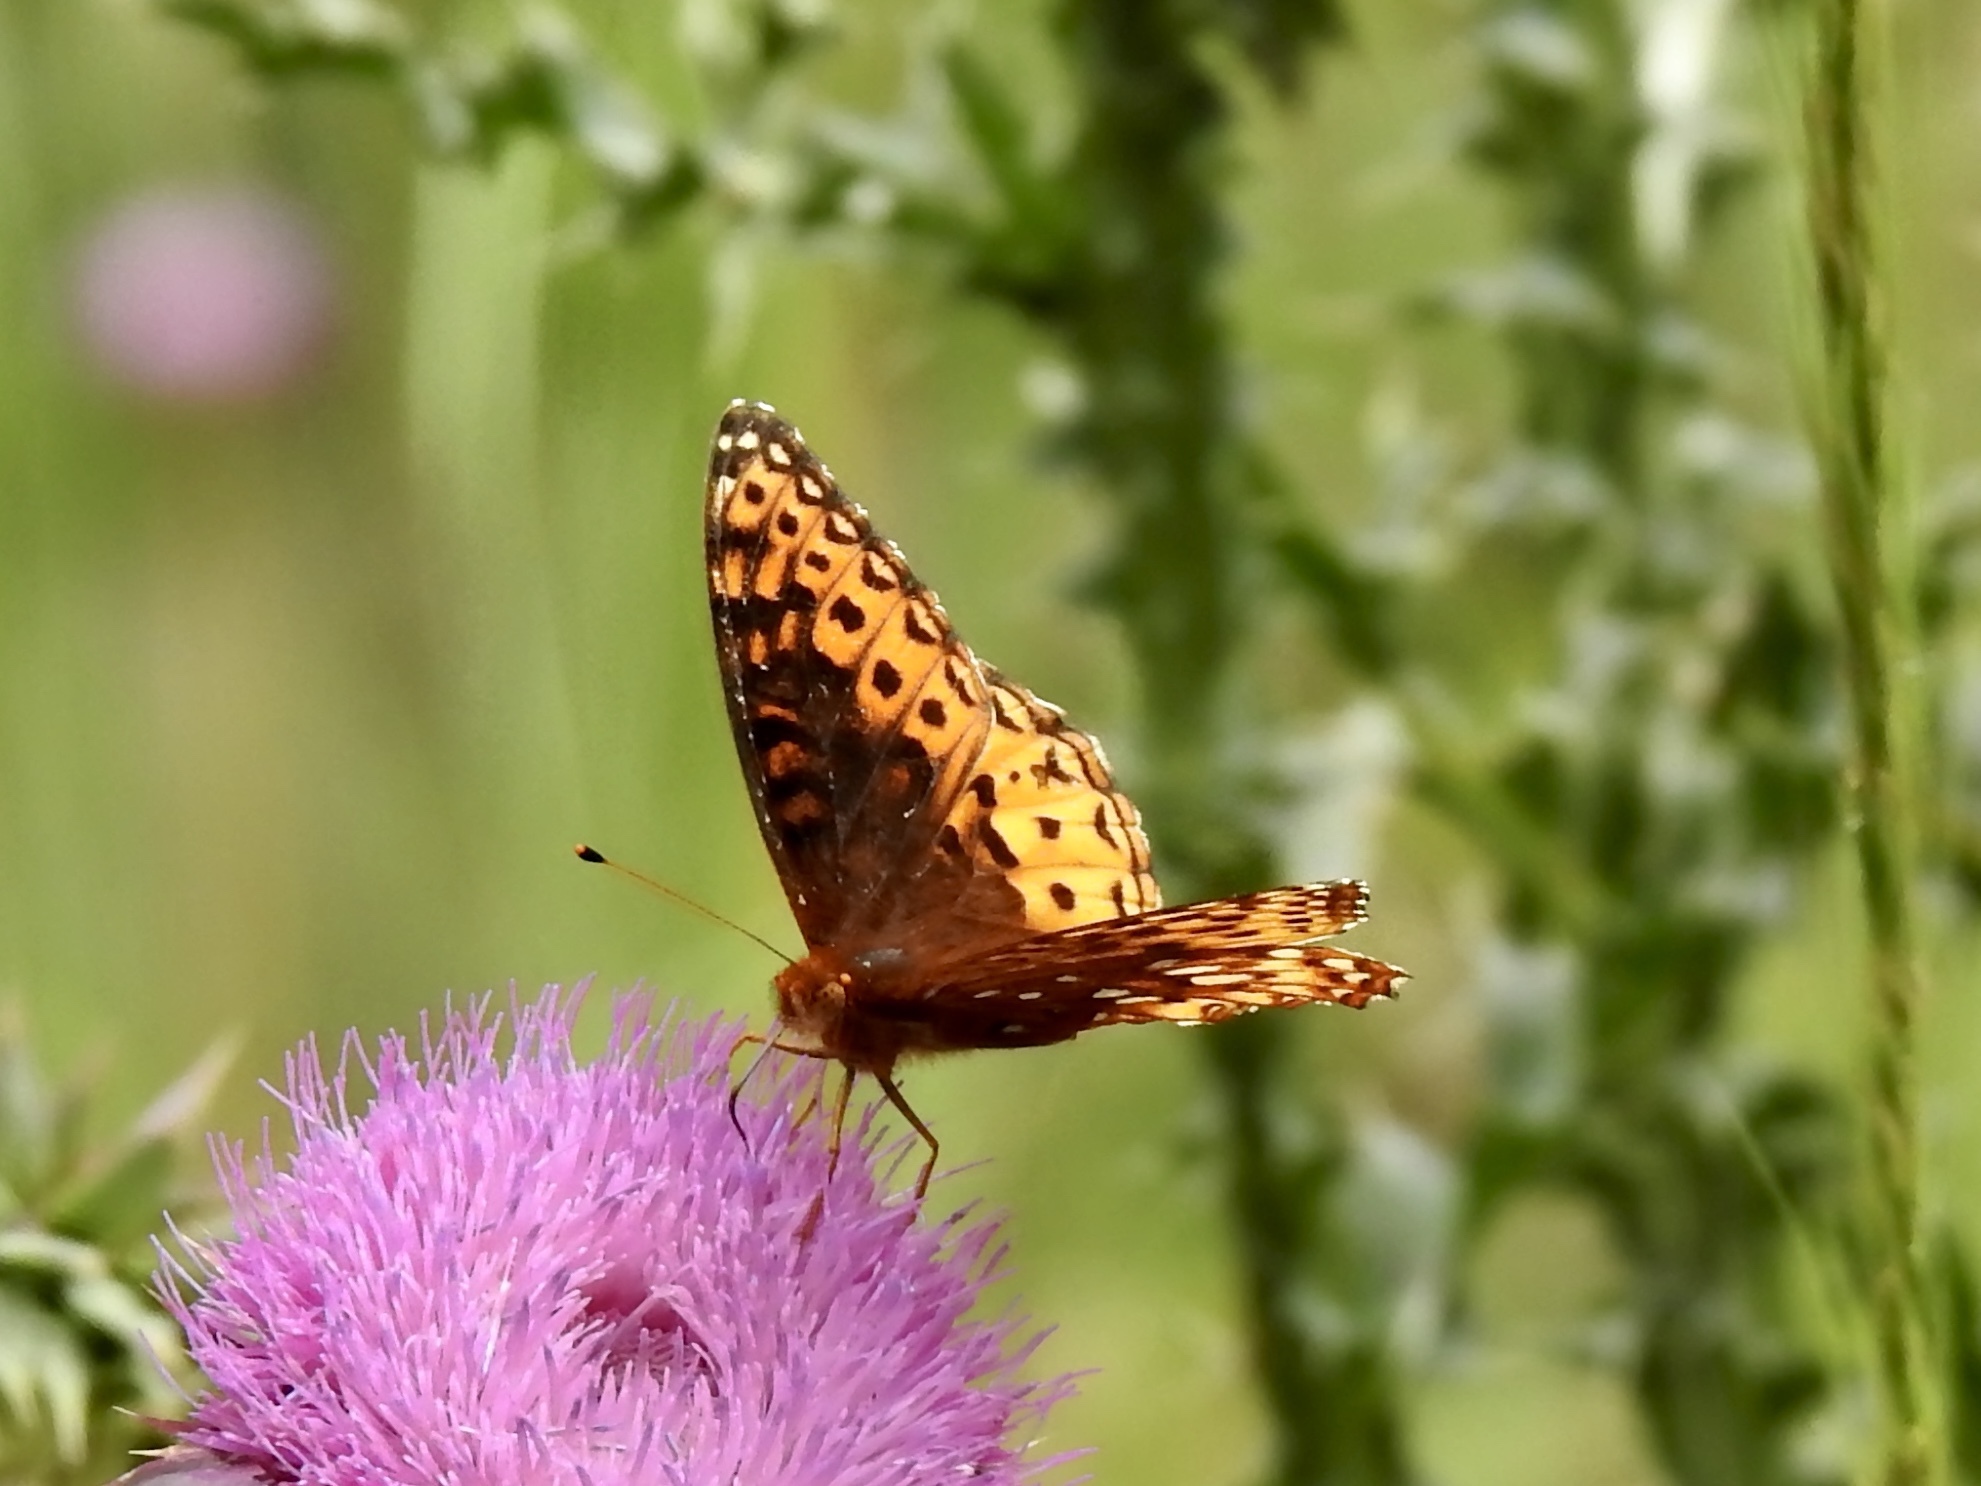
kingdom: Animalia
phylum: Arthropoda
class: Insecta
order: Lepidoptera
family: Nymphalidae
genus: Speyeria
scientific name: Speyeria atlantis
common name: Atlantis fritillary
